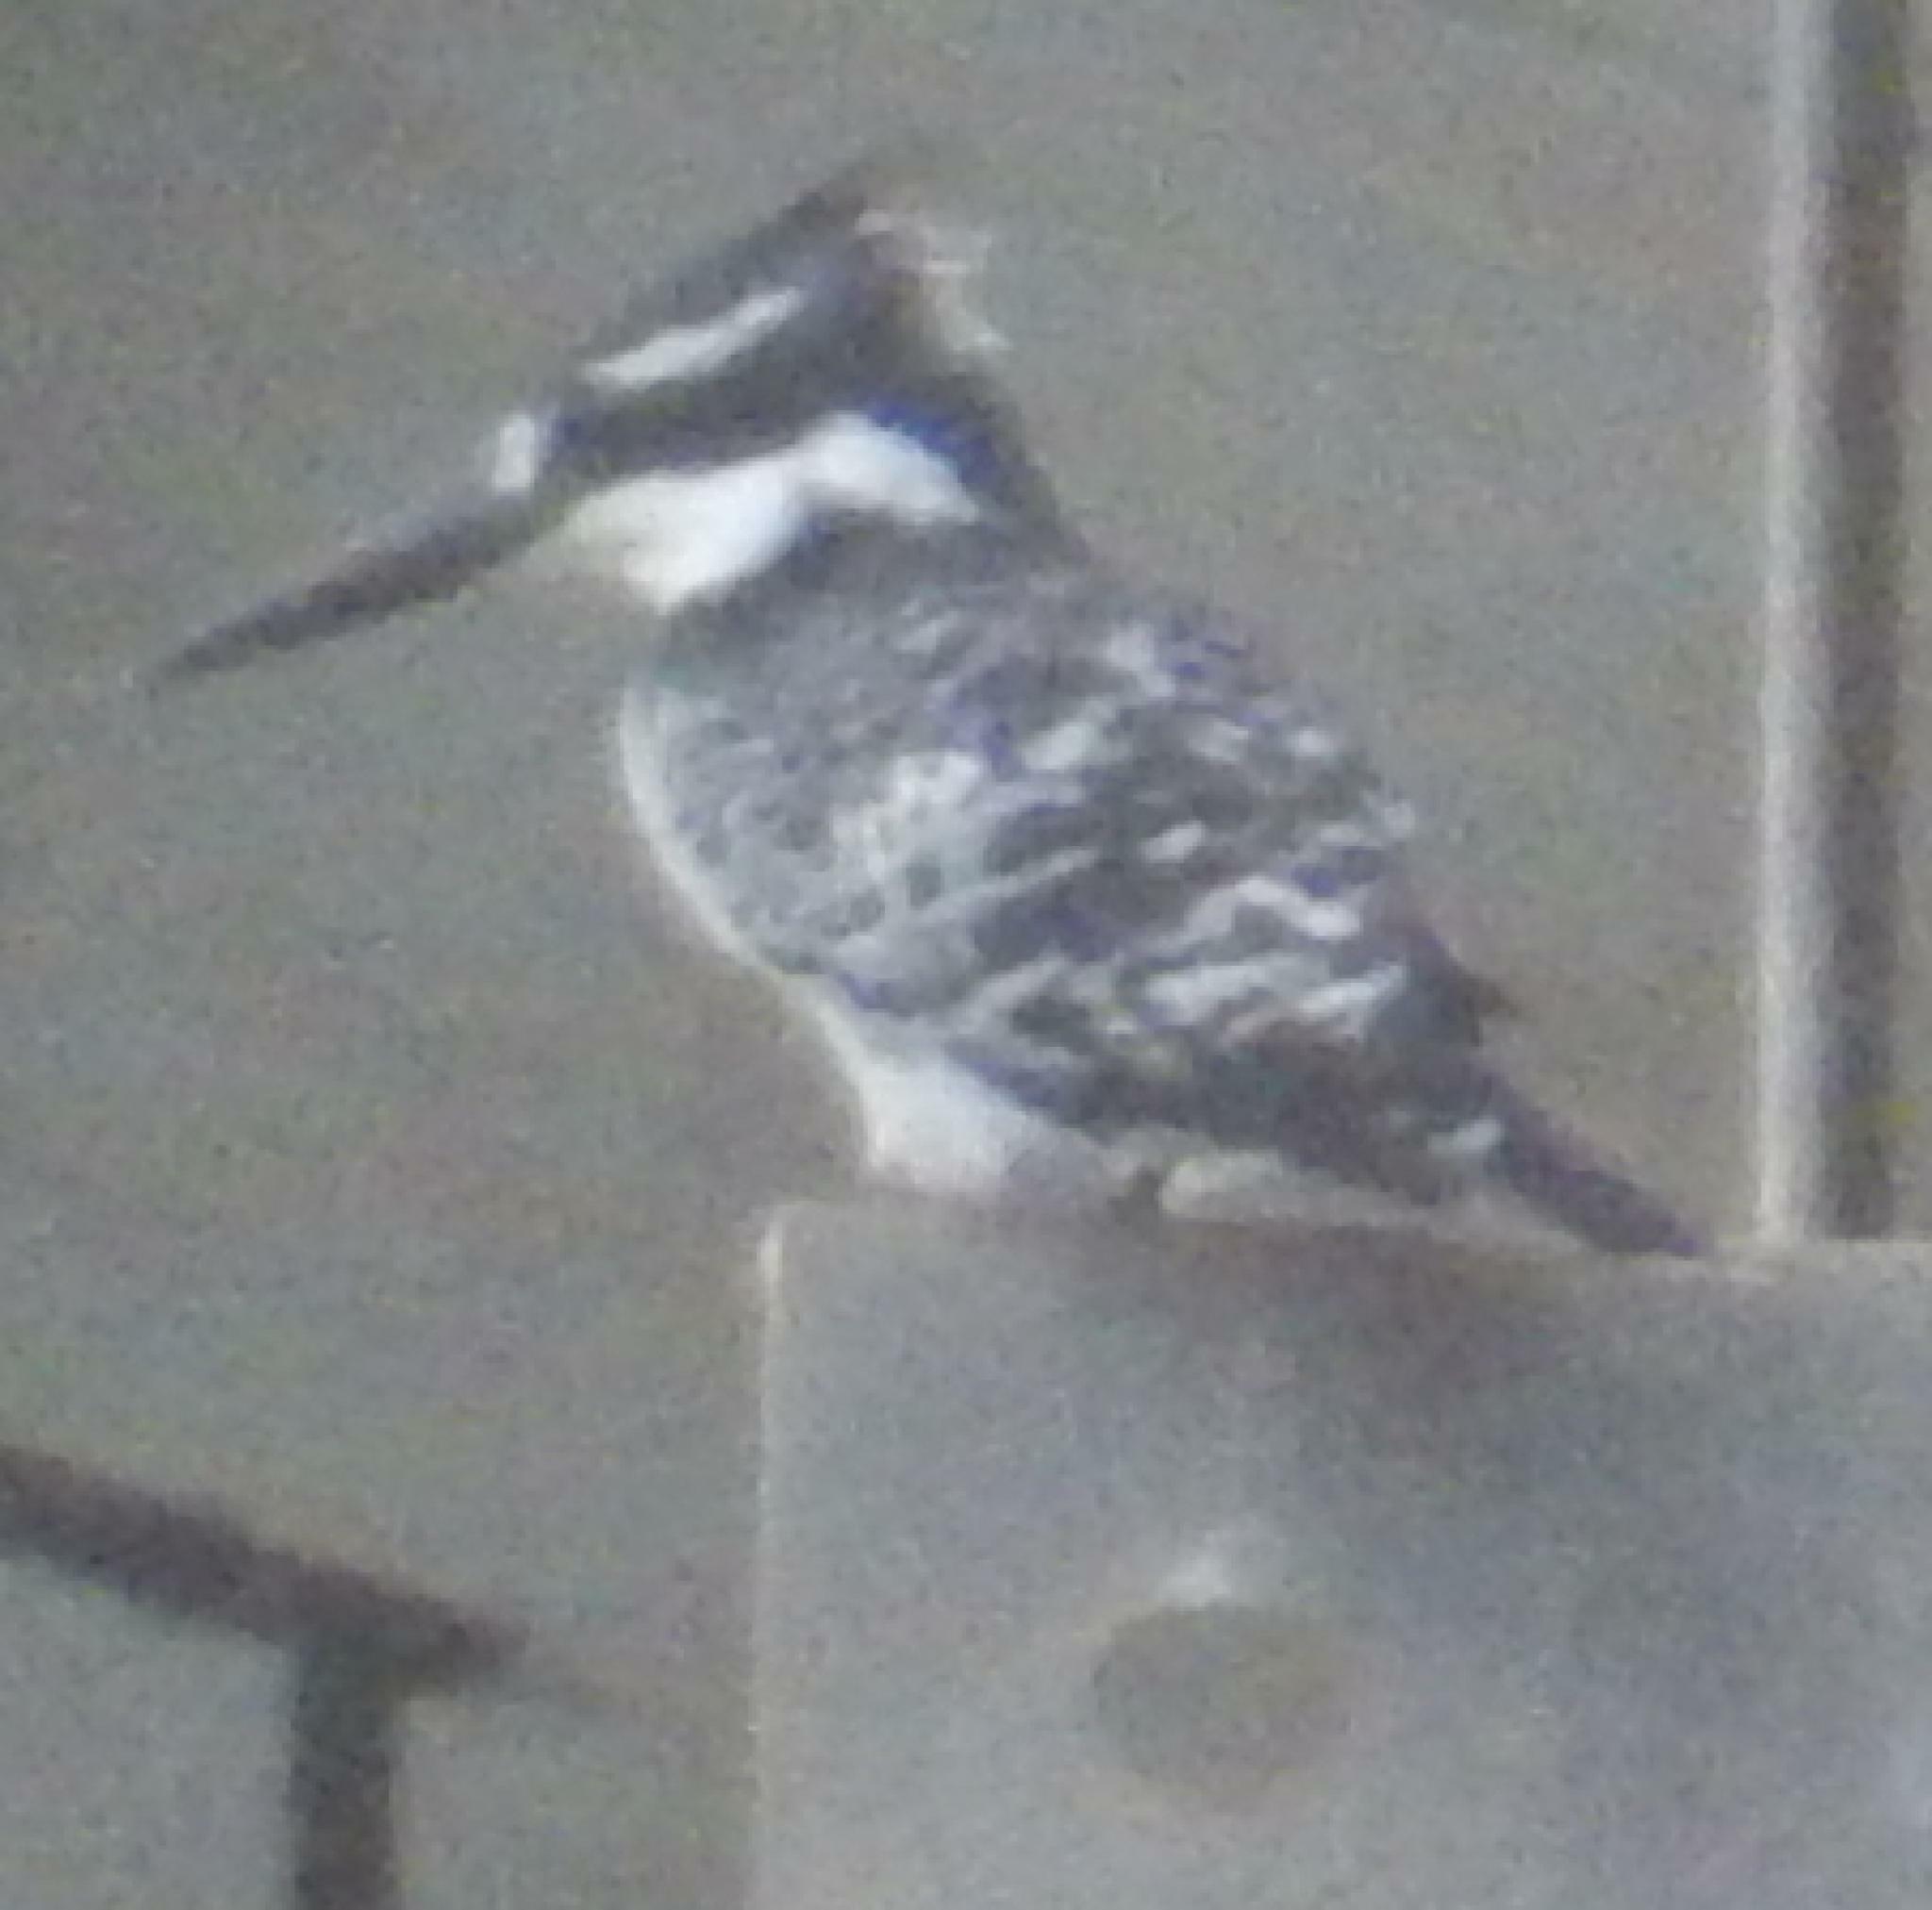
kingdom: Animalia
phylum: Chordata
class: Aves
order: Coraciiformes
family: Alcedinidae
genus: Ceryle
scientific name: Ceryle rudis
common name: Pied kingfisher
